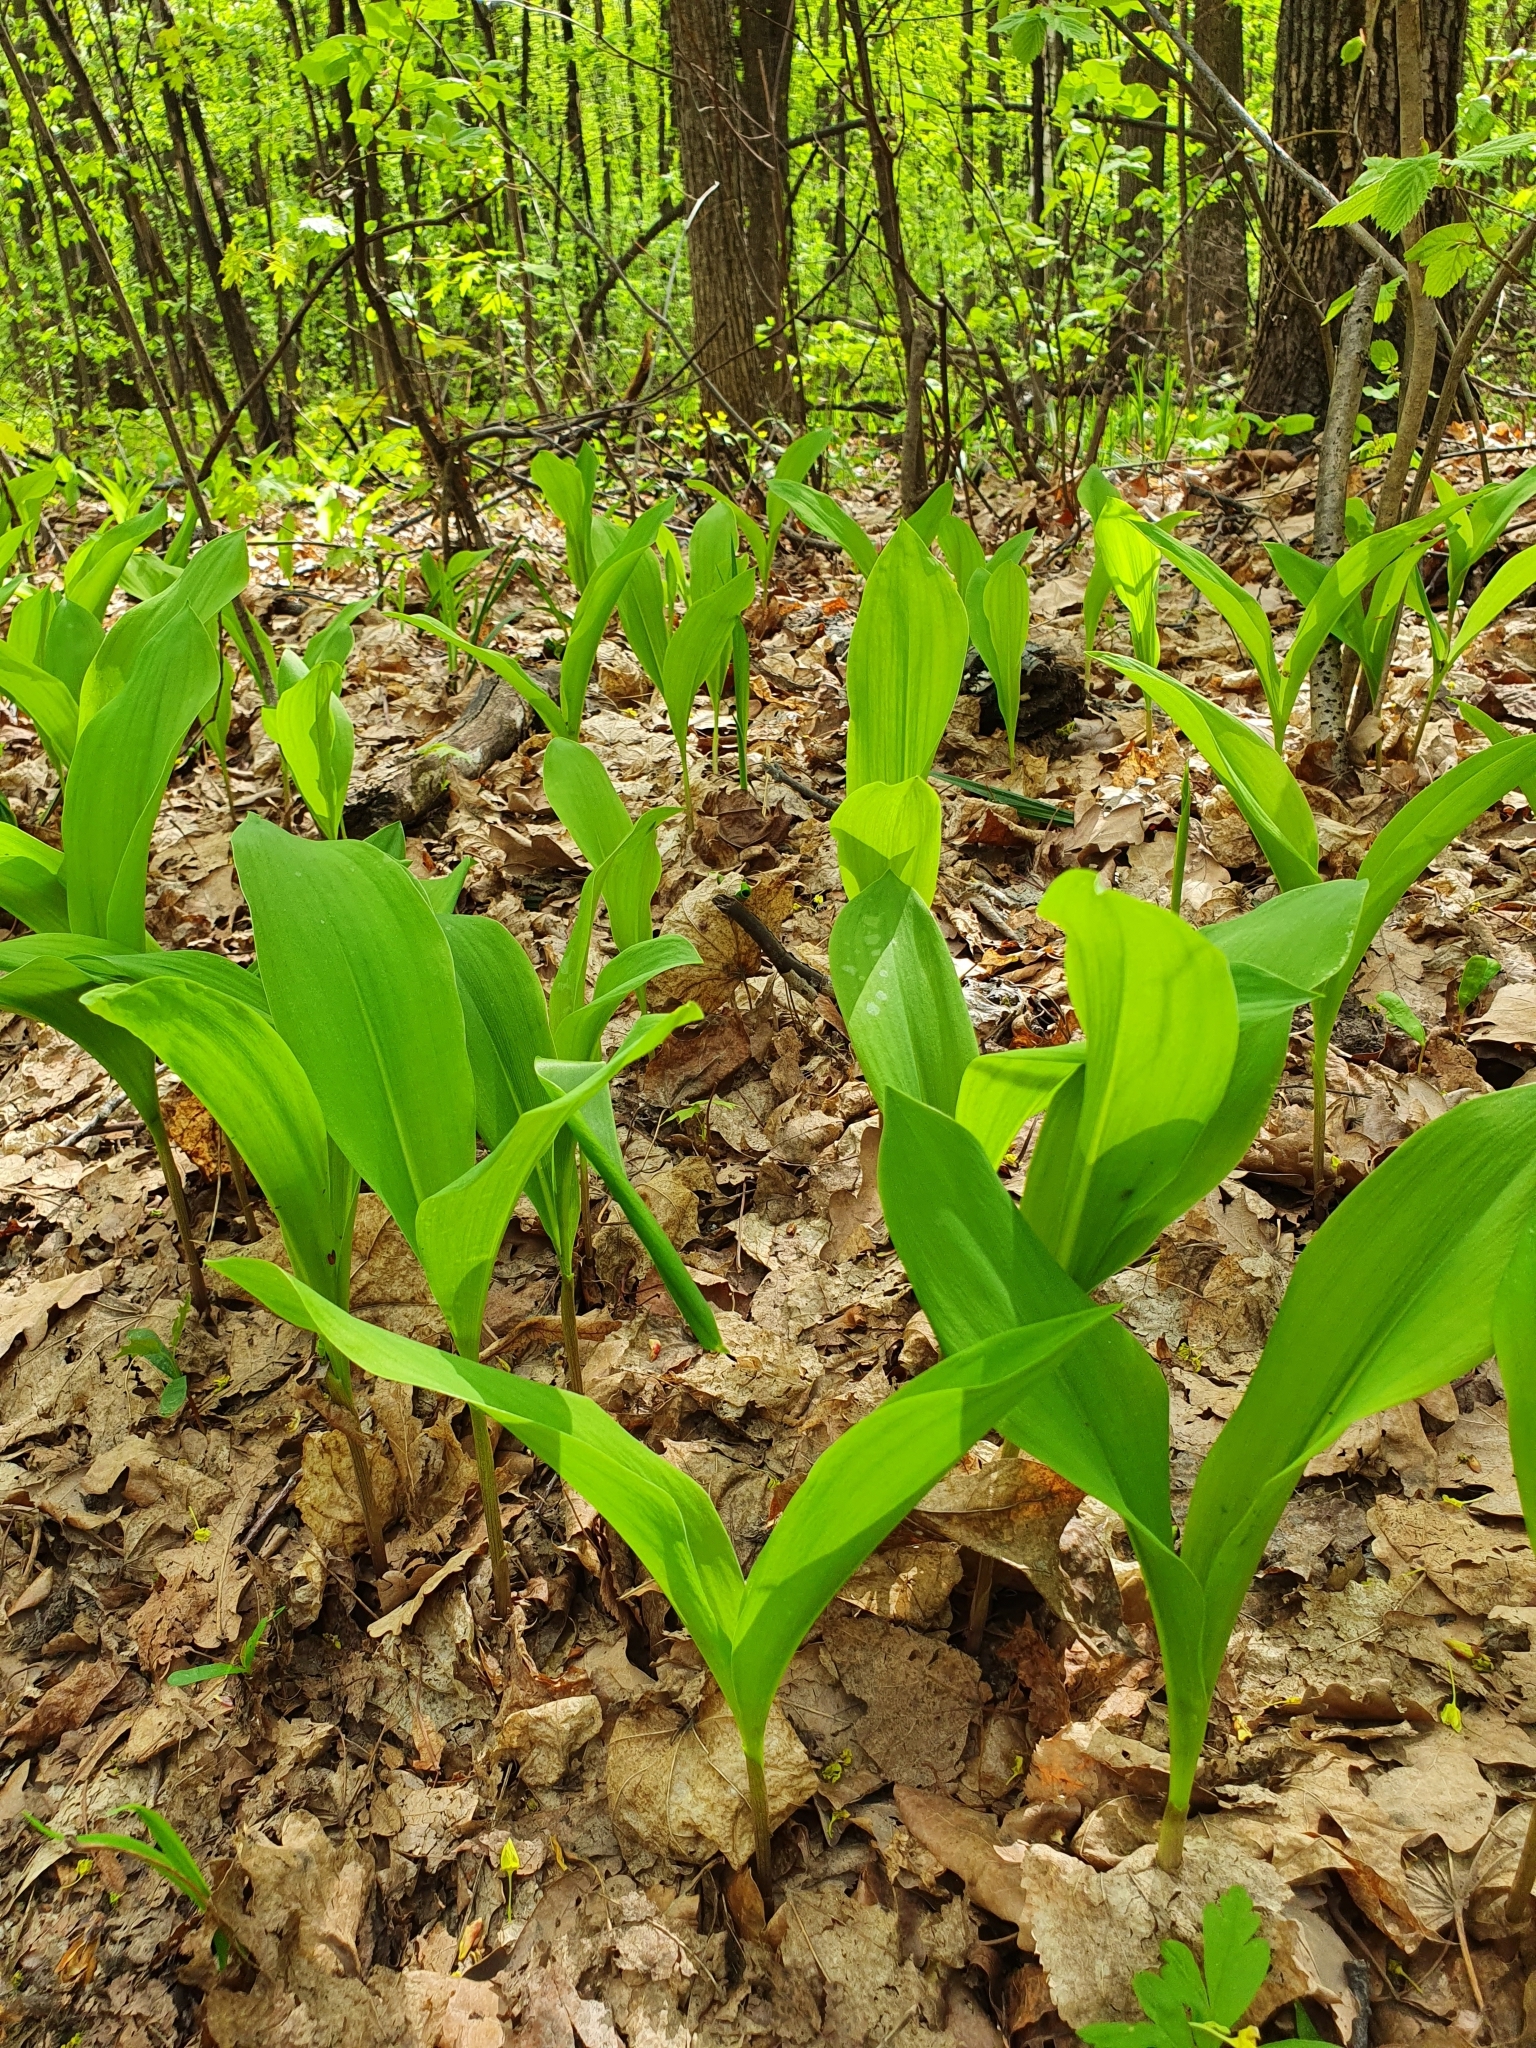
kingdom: Plantae
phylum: Tracheophyta
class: Liliopsida
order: Asparagales
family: Asparagaceae
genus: Convallaria
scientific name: Convallaria majalis
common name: Lily-of-the-valley
